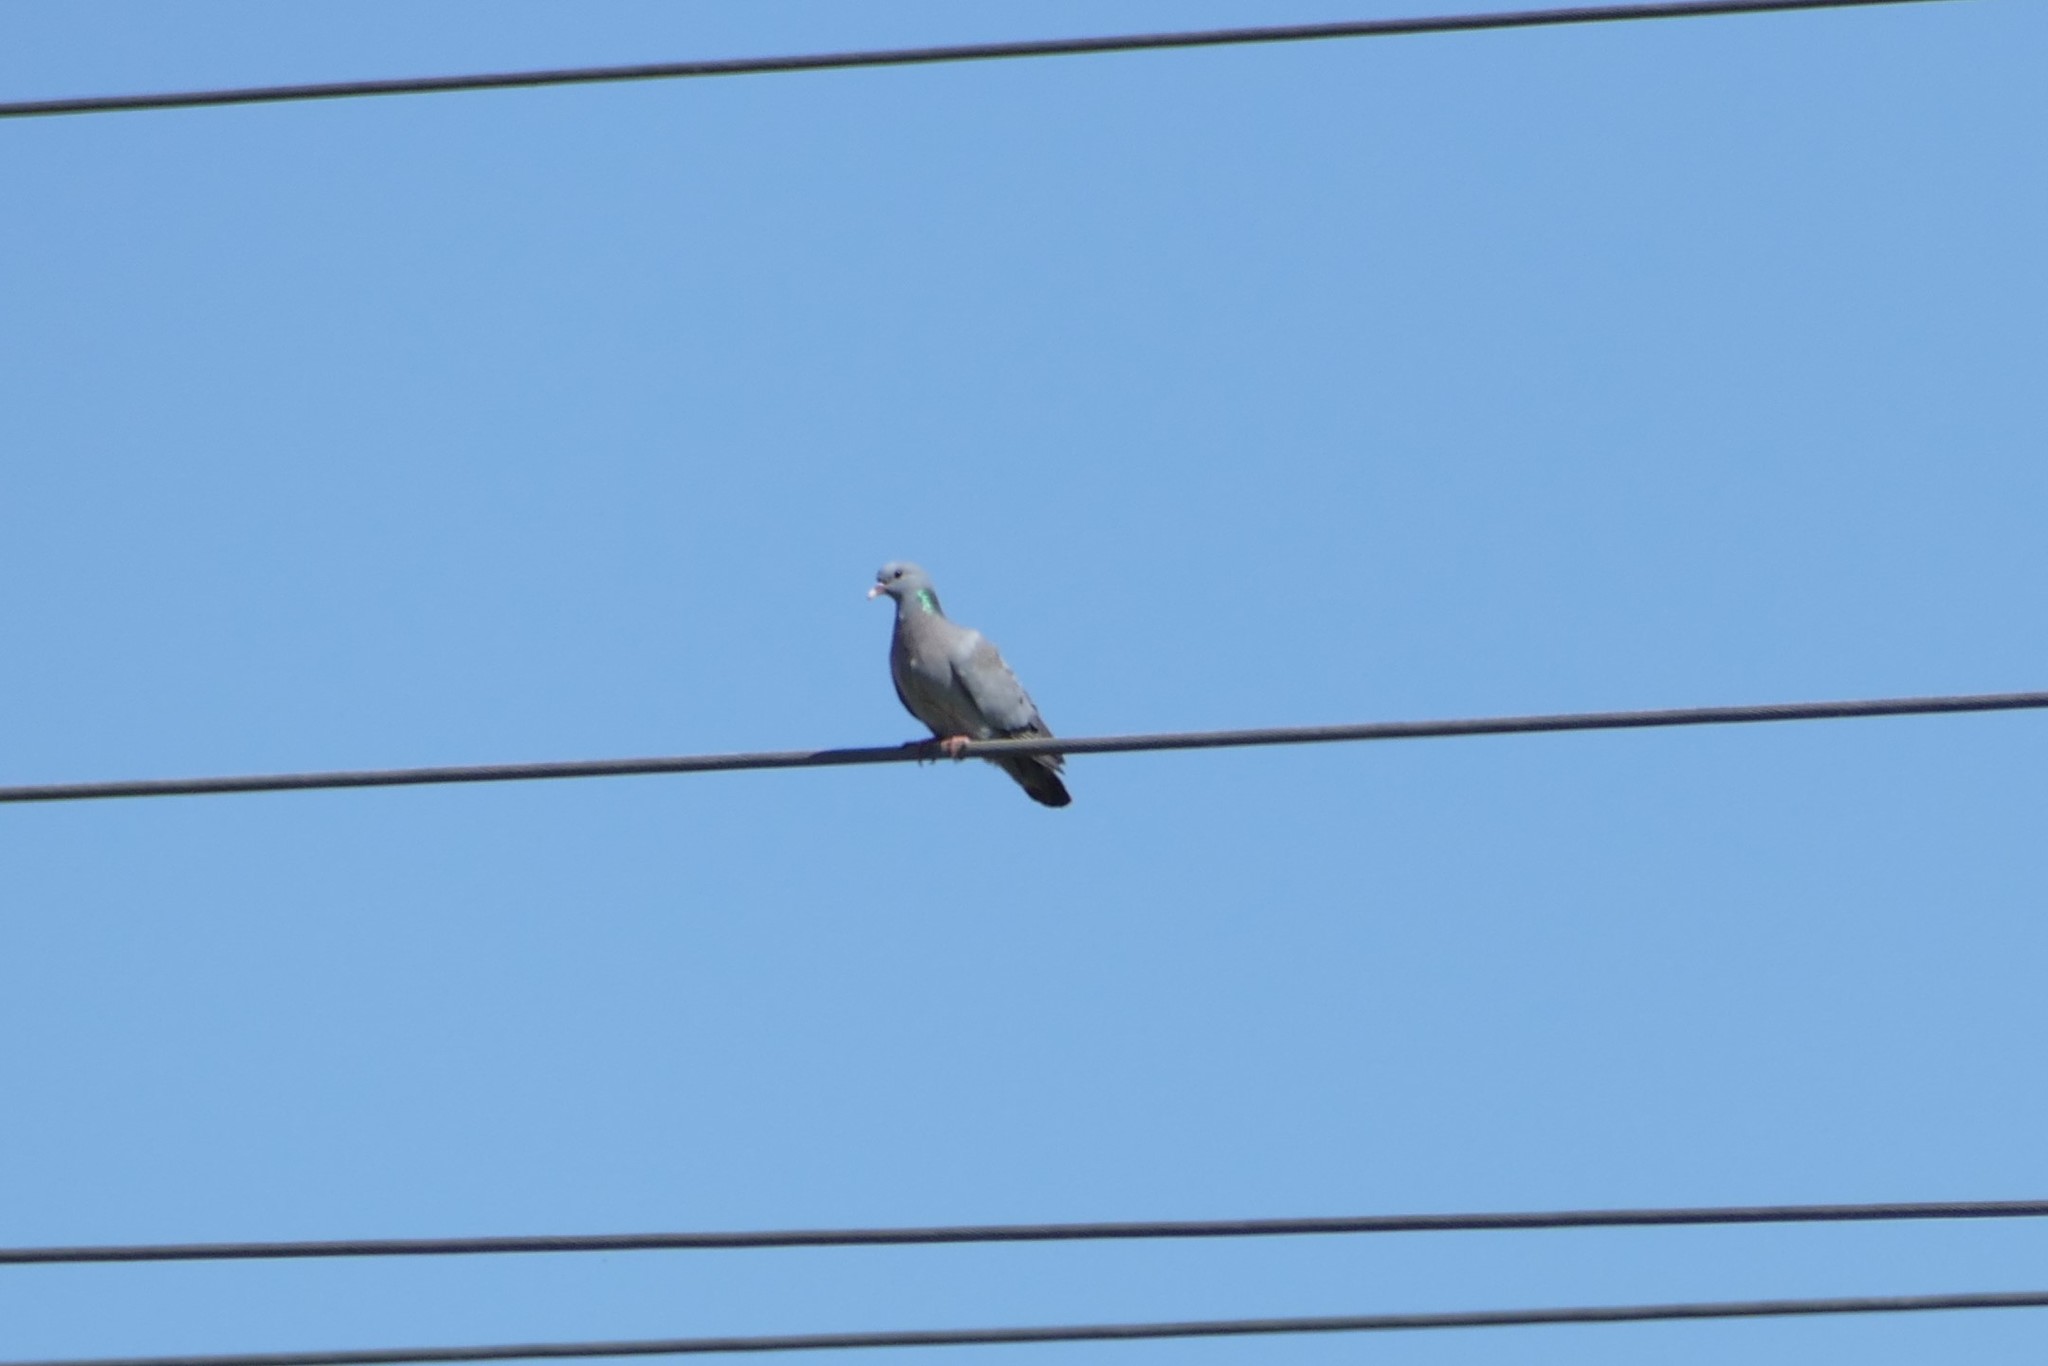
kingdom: Animalia
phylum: Chordata
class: Aves
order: Columbiformes
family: Columbidae
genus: Columba
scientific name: Columba oenas
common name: Stock dove
